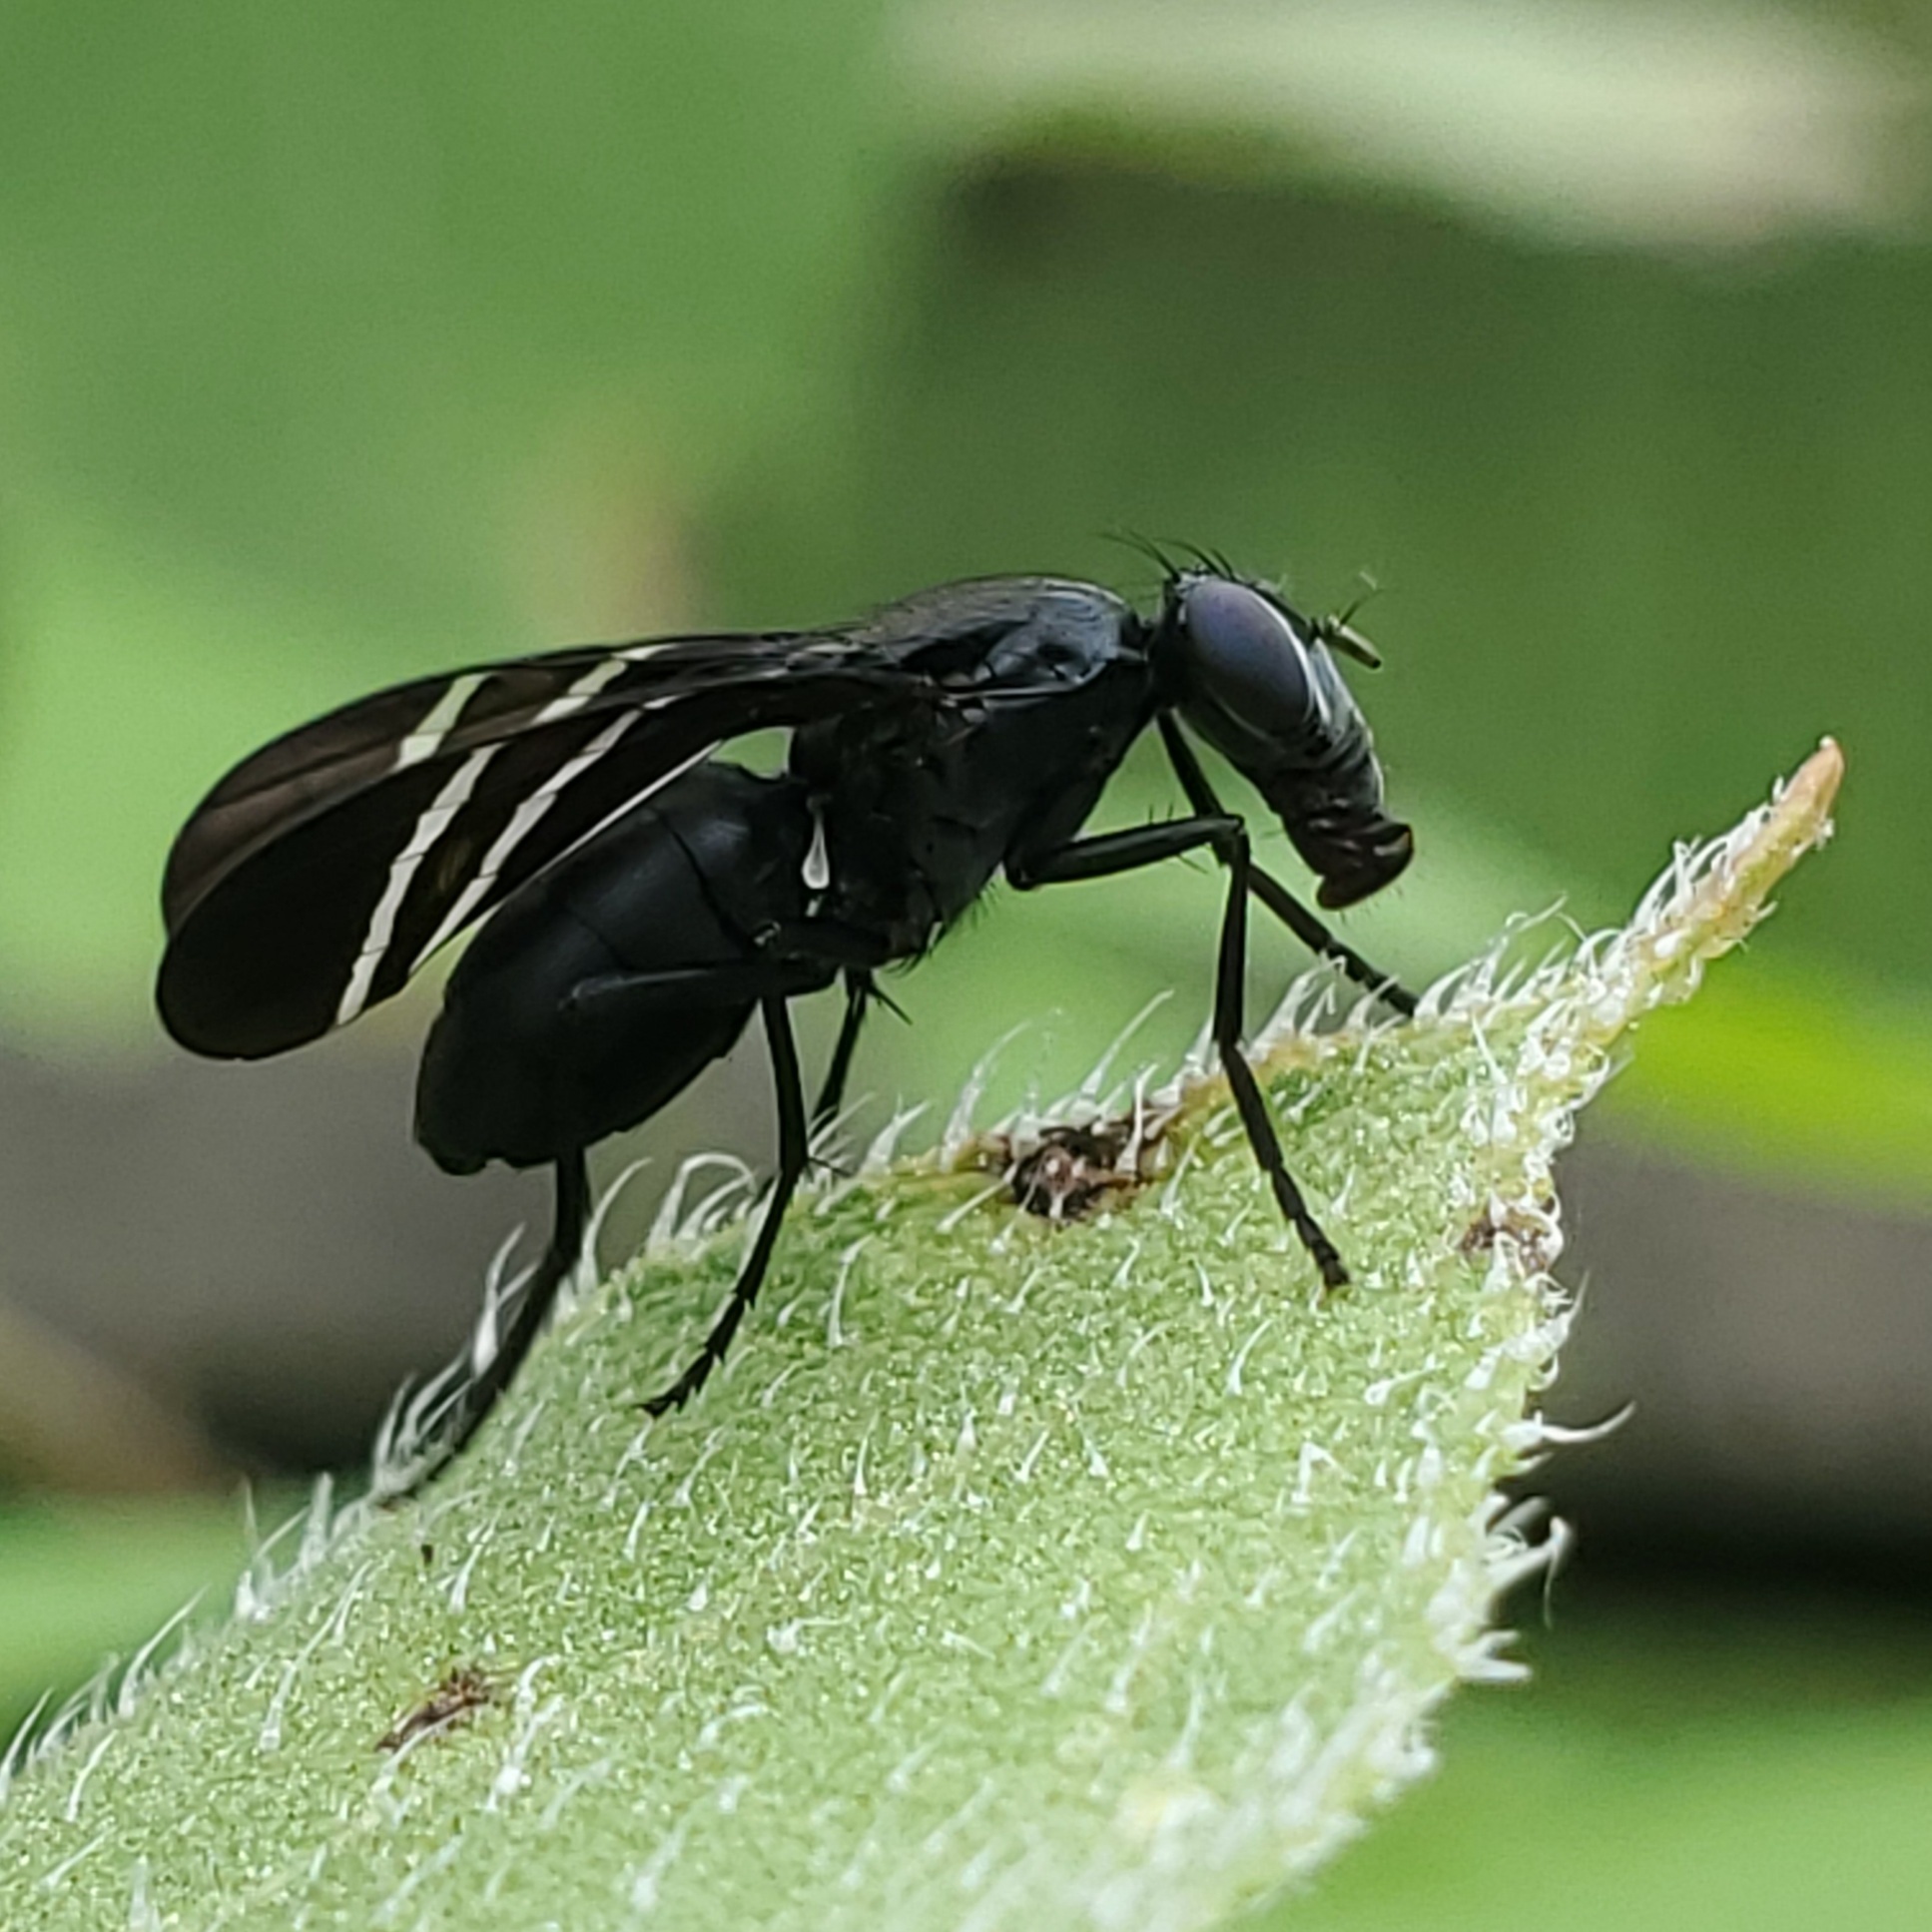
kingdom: Animalia
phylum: Arthropoda
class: Insecta
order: Diptera
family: Ulidiidae
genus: Tritoxa
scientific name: Tritoxa flexa
